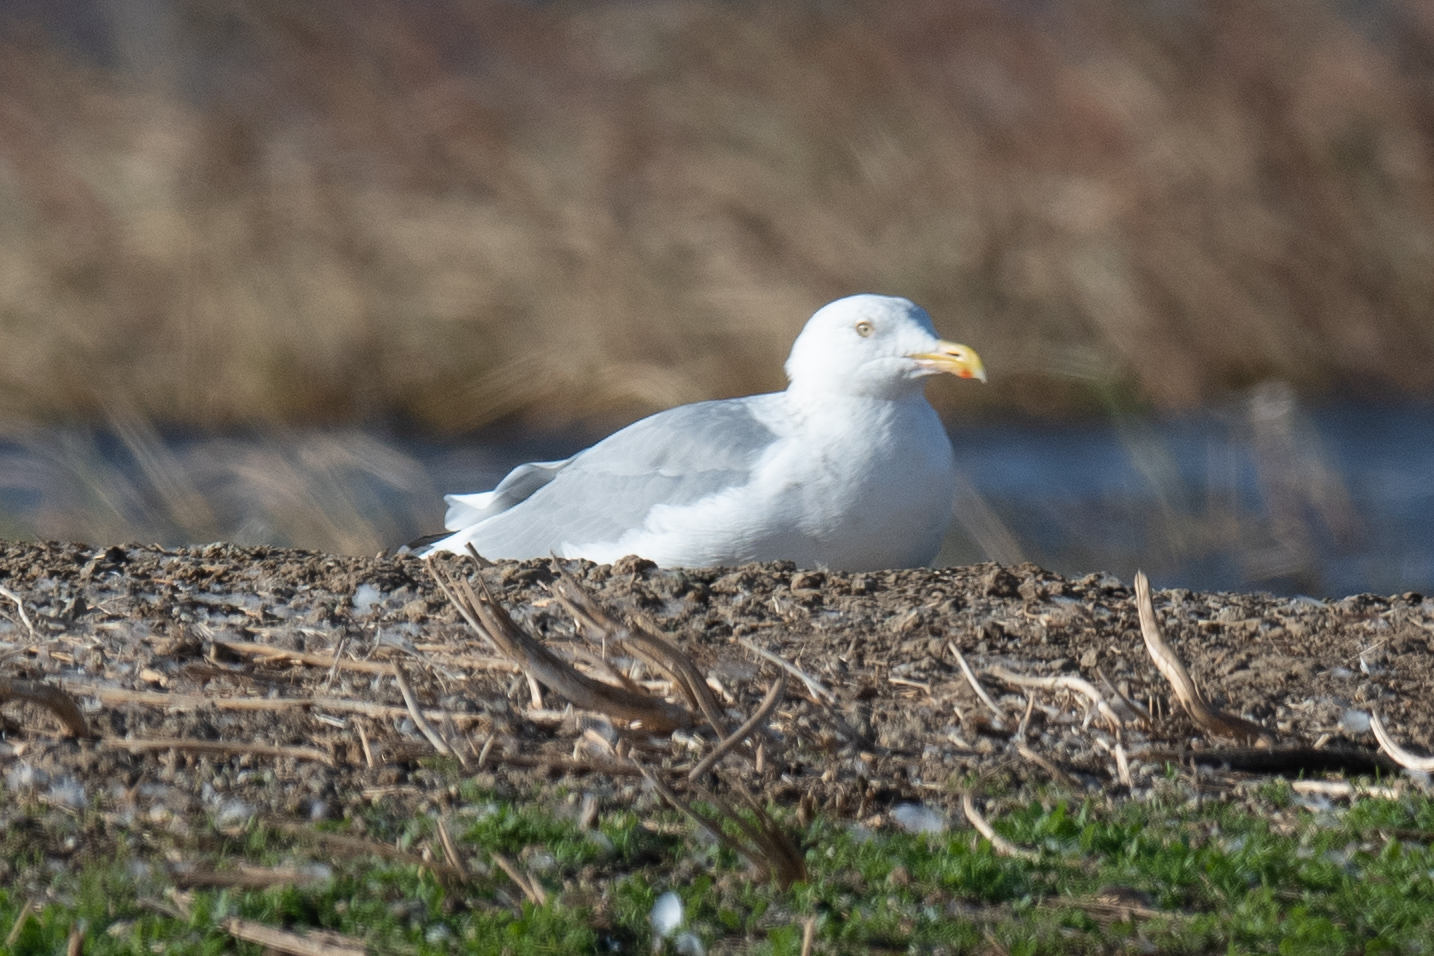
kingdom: Animalia
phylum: Chordata
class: Aves
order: Charadriiformes
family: Laridae
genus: Larus
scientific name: Larus argentatus
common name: Herring gull
